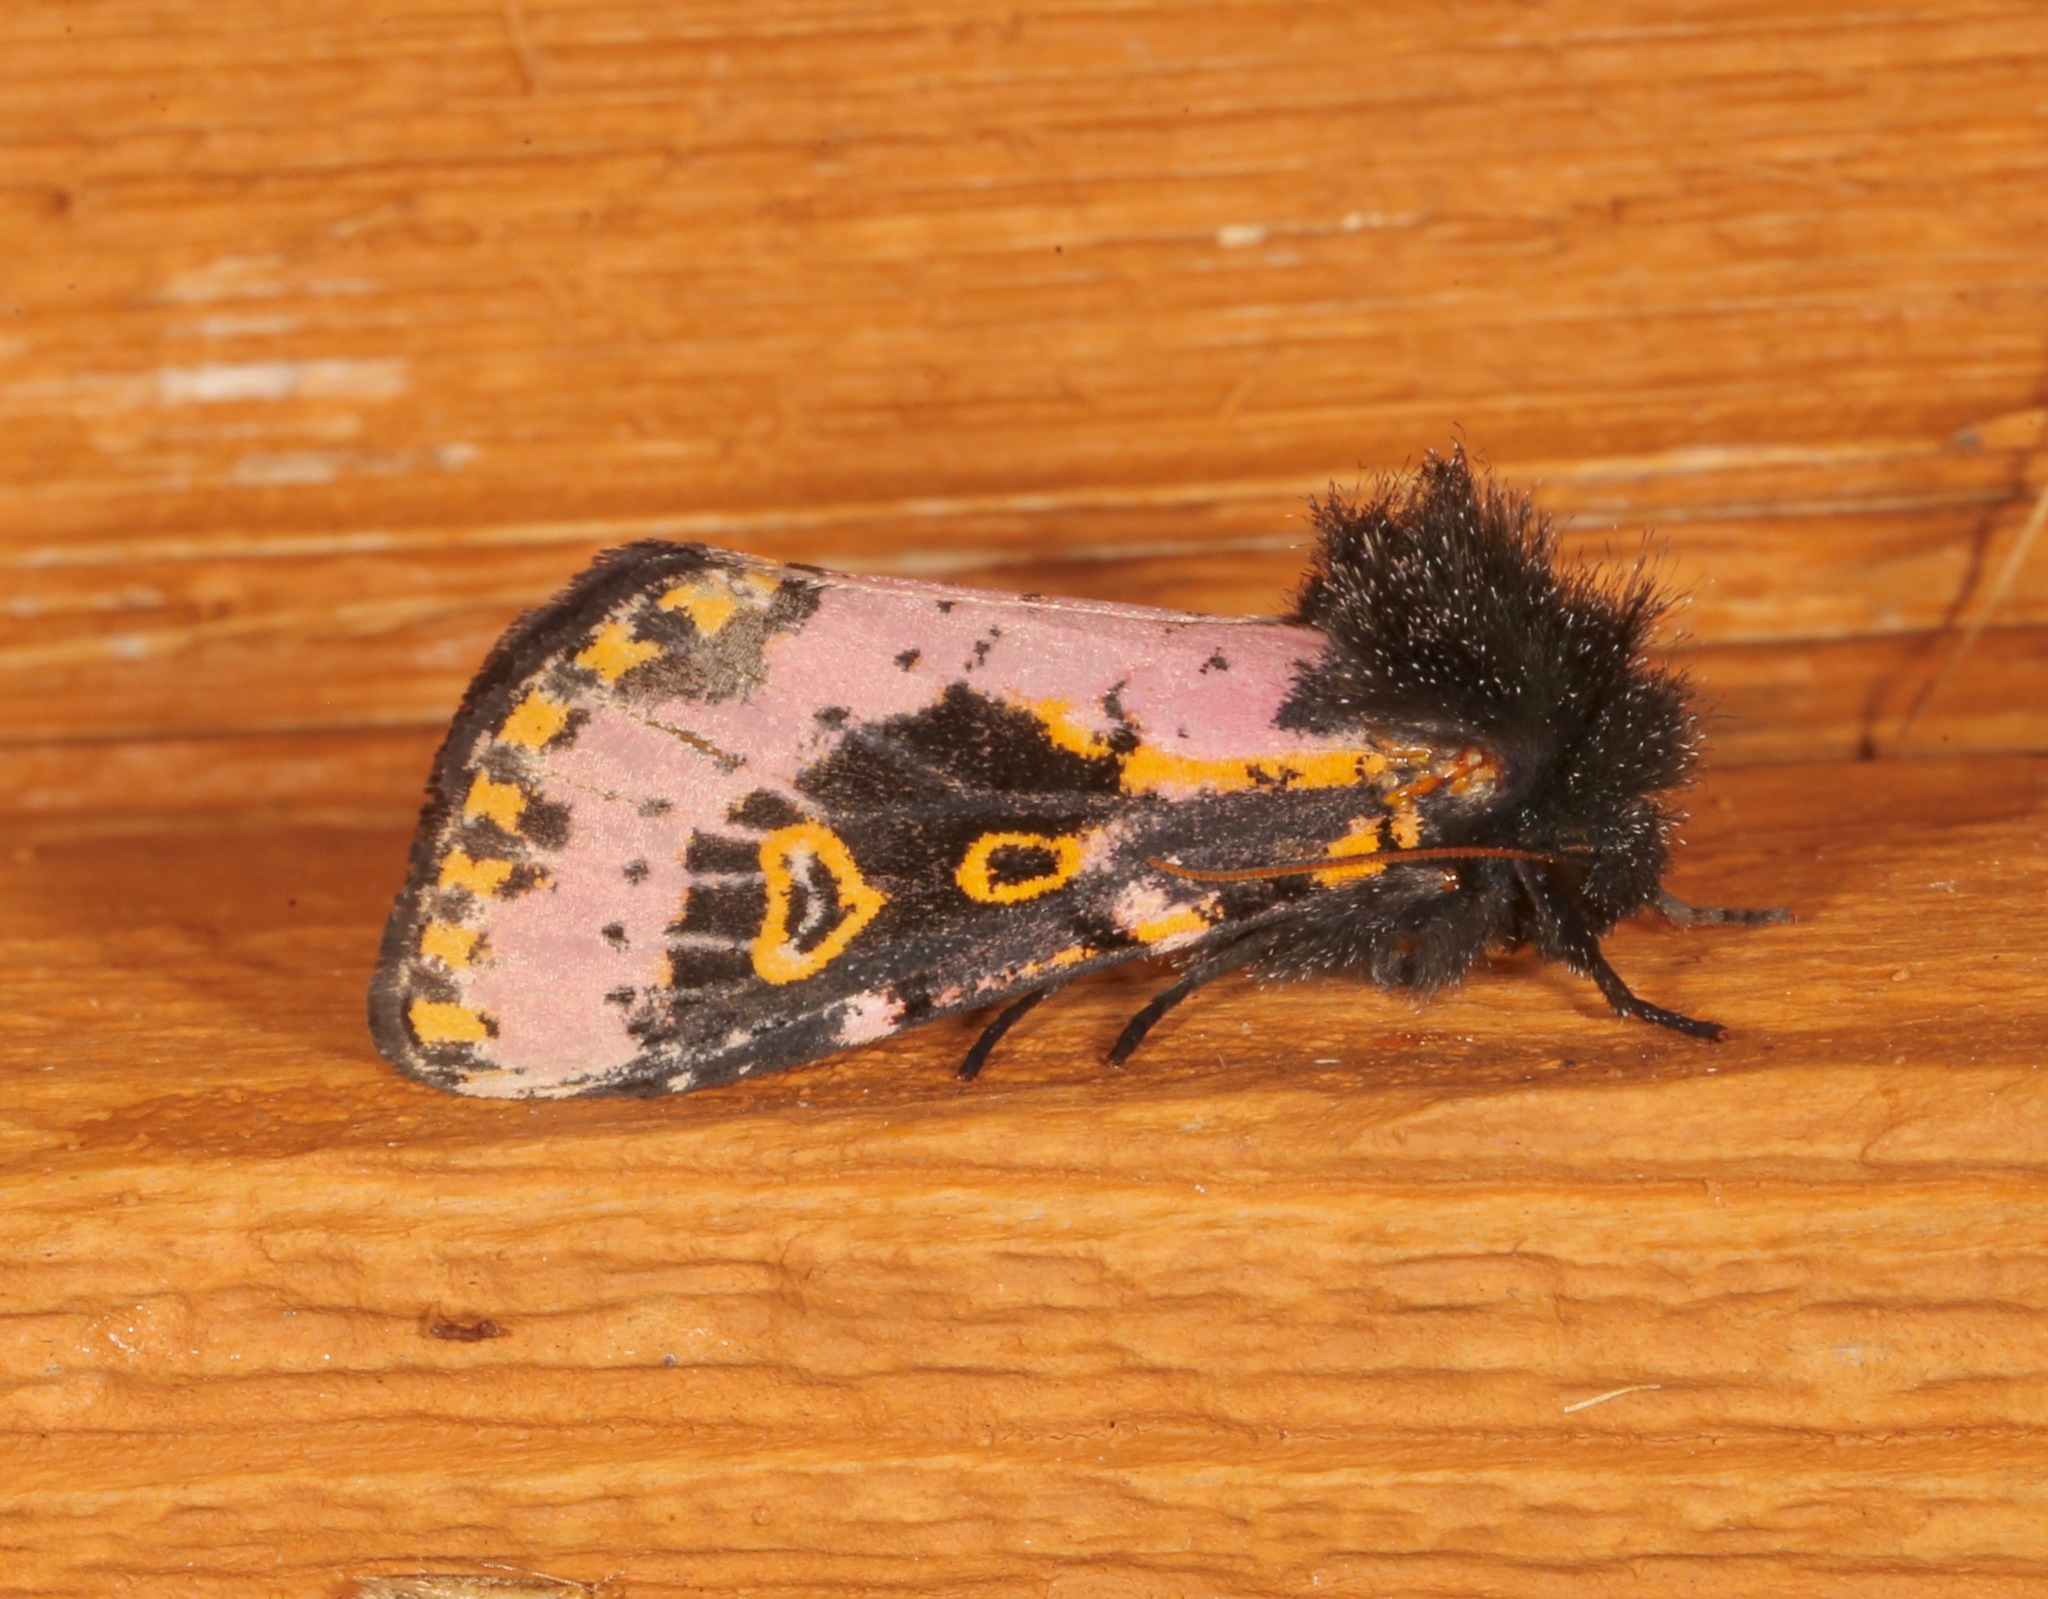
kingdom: Animalia
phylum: Arthropoda
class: Insecta
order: Lepidoptera
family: Noctuidae
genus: Xanthopastis
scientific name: Xanthopastis regnatrix
